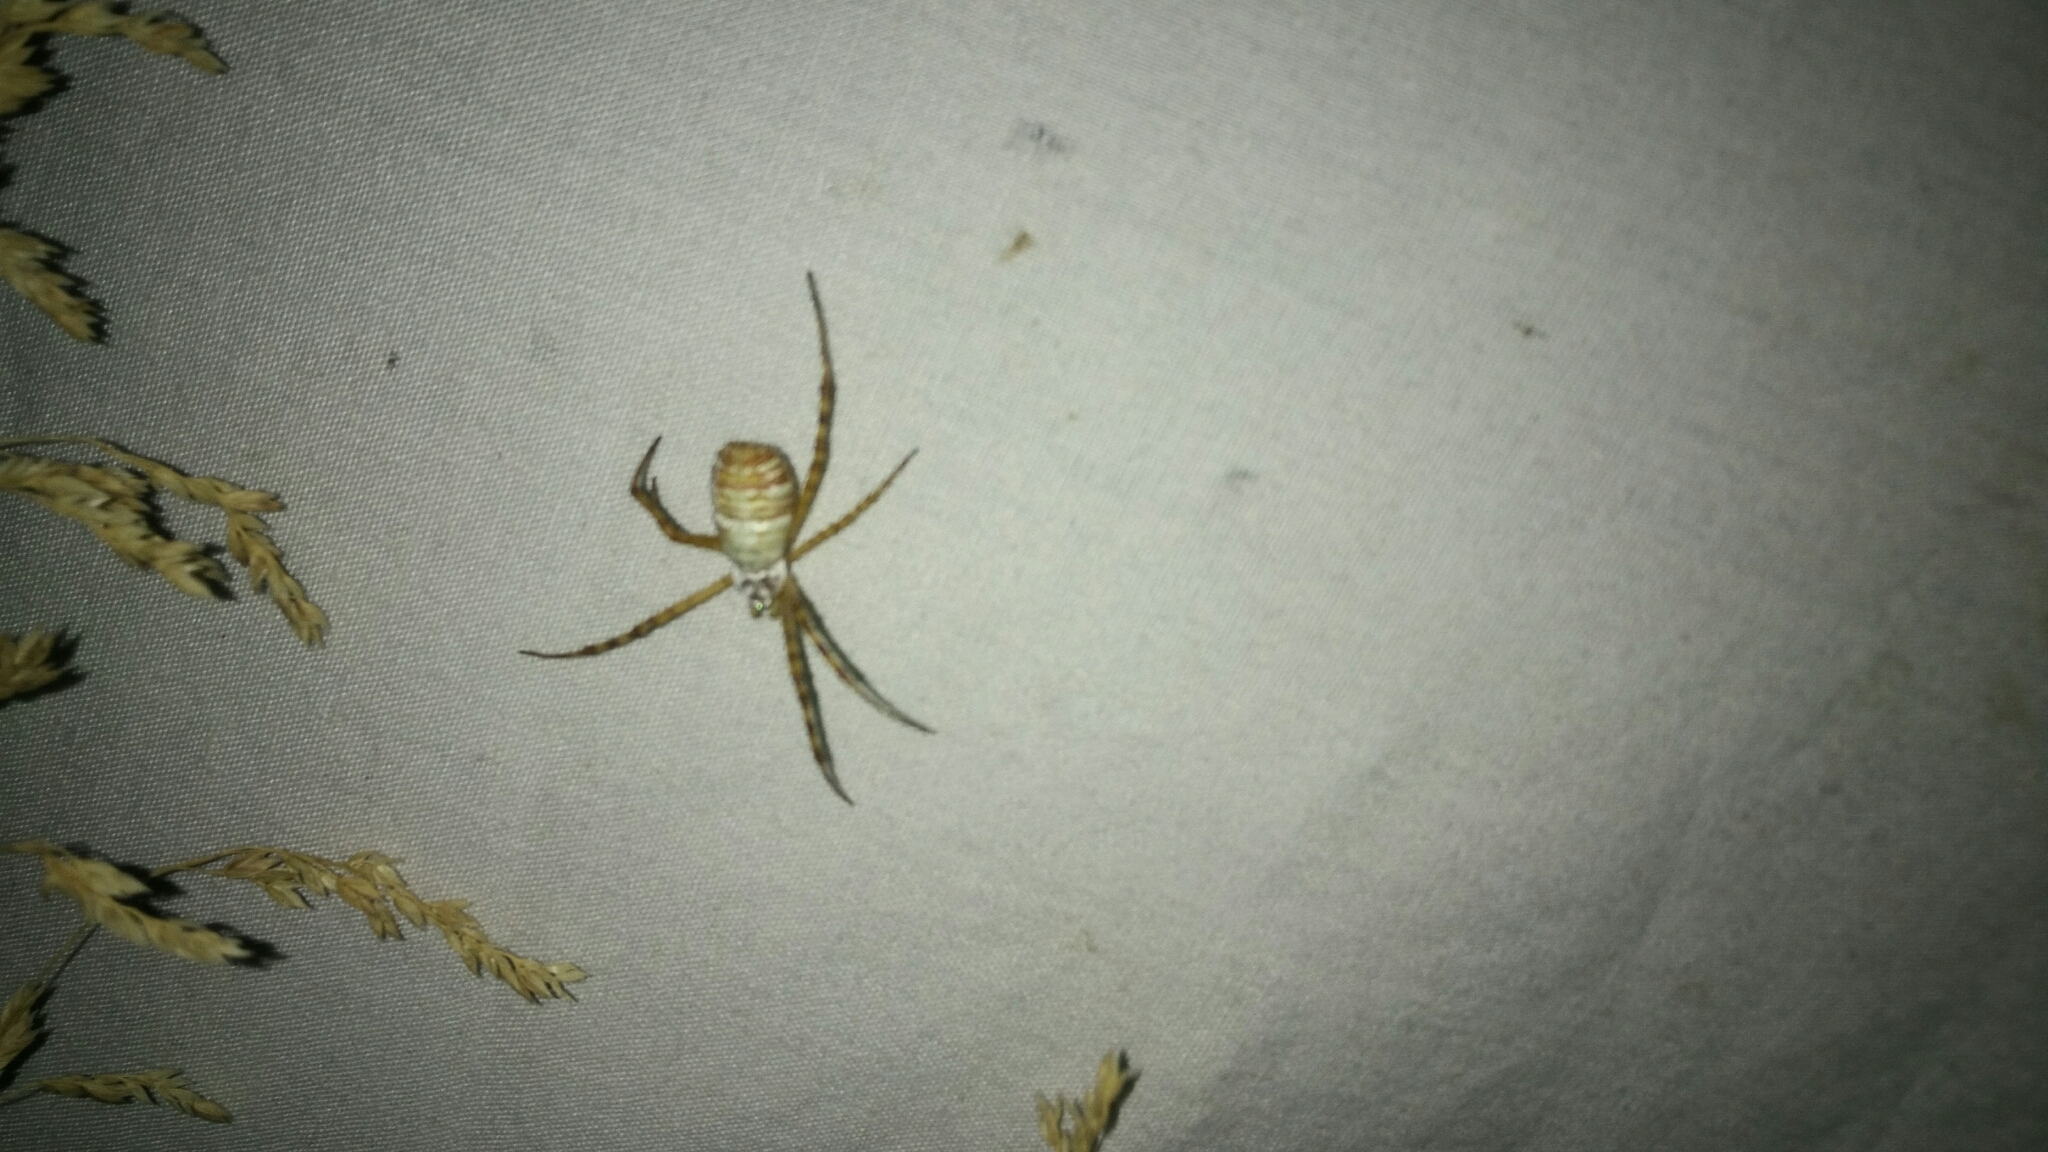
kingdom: Animalia
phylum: Arthropoda
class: Arachnida
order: Araneae
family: Araneidae
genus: Argiope
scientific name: Argiope trifasciata
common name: Banded garden spider
